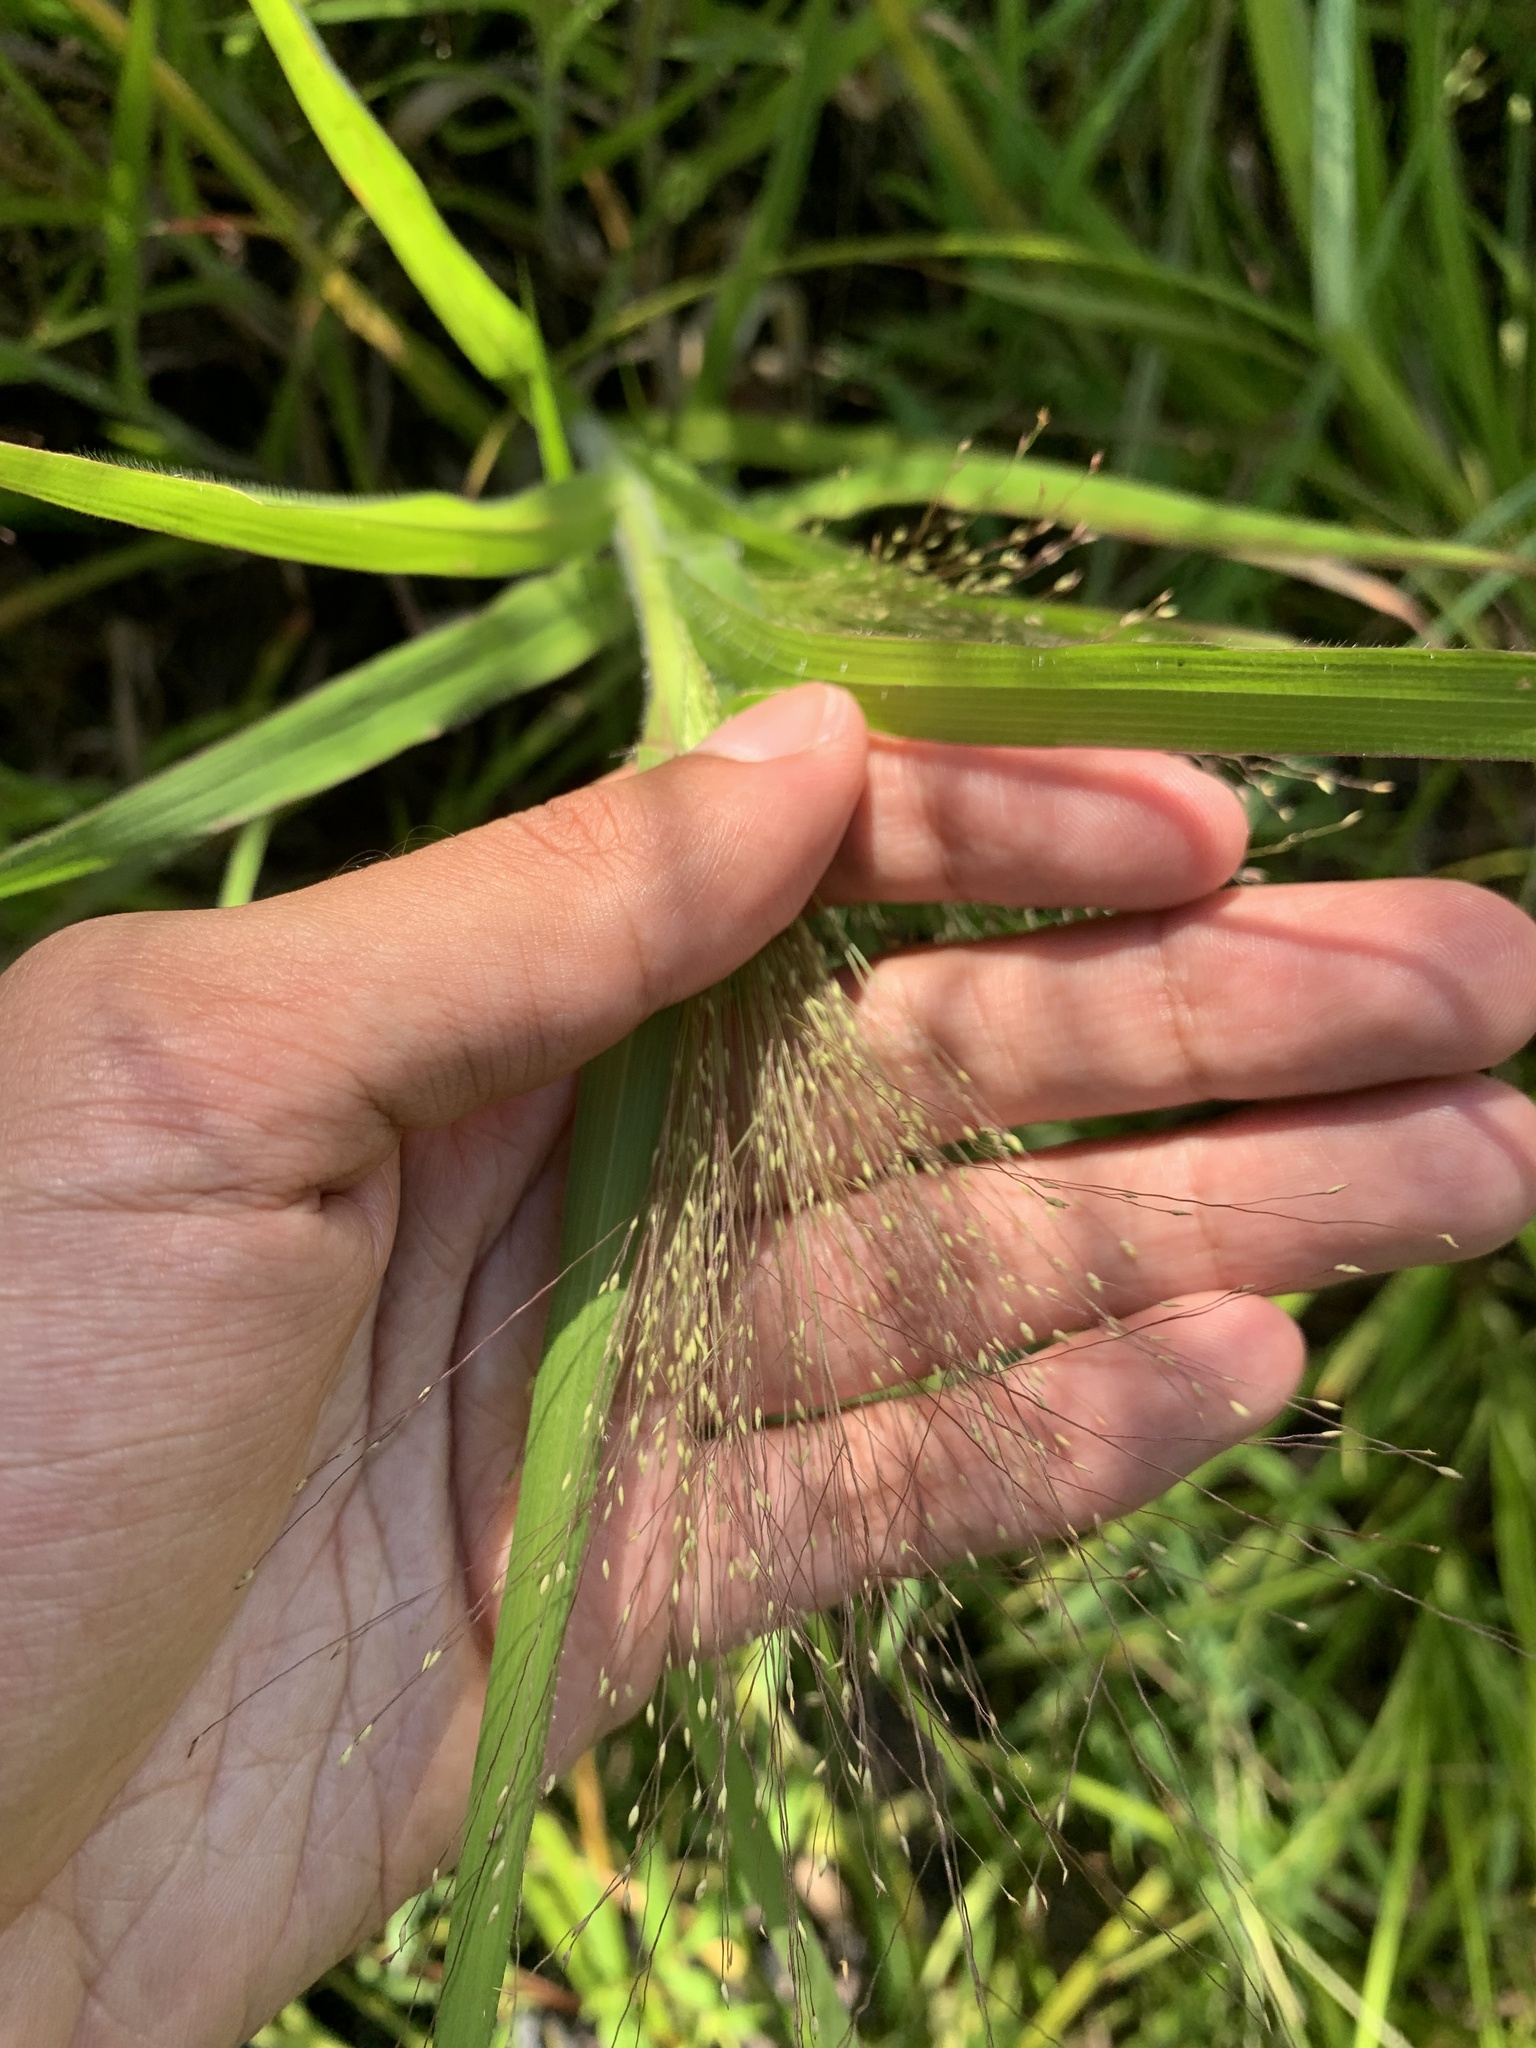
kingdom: Plantae
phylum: Tracheophyta
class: Liliopsida
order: Poales
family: Poaceae
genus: Panicum
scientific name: Panicum gattingeri
